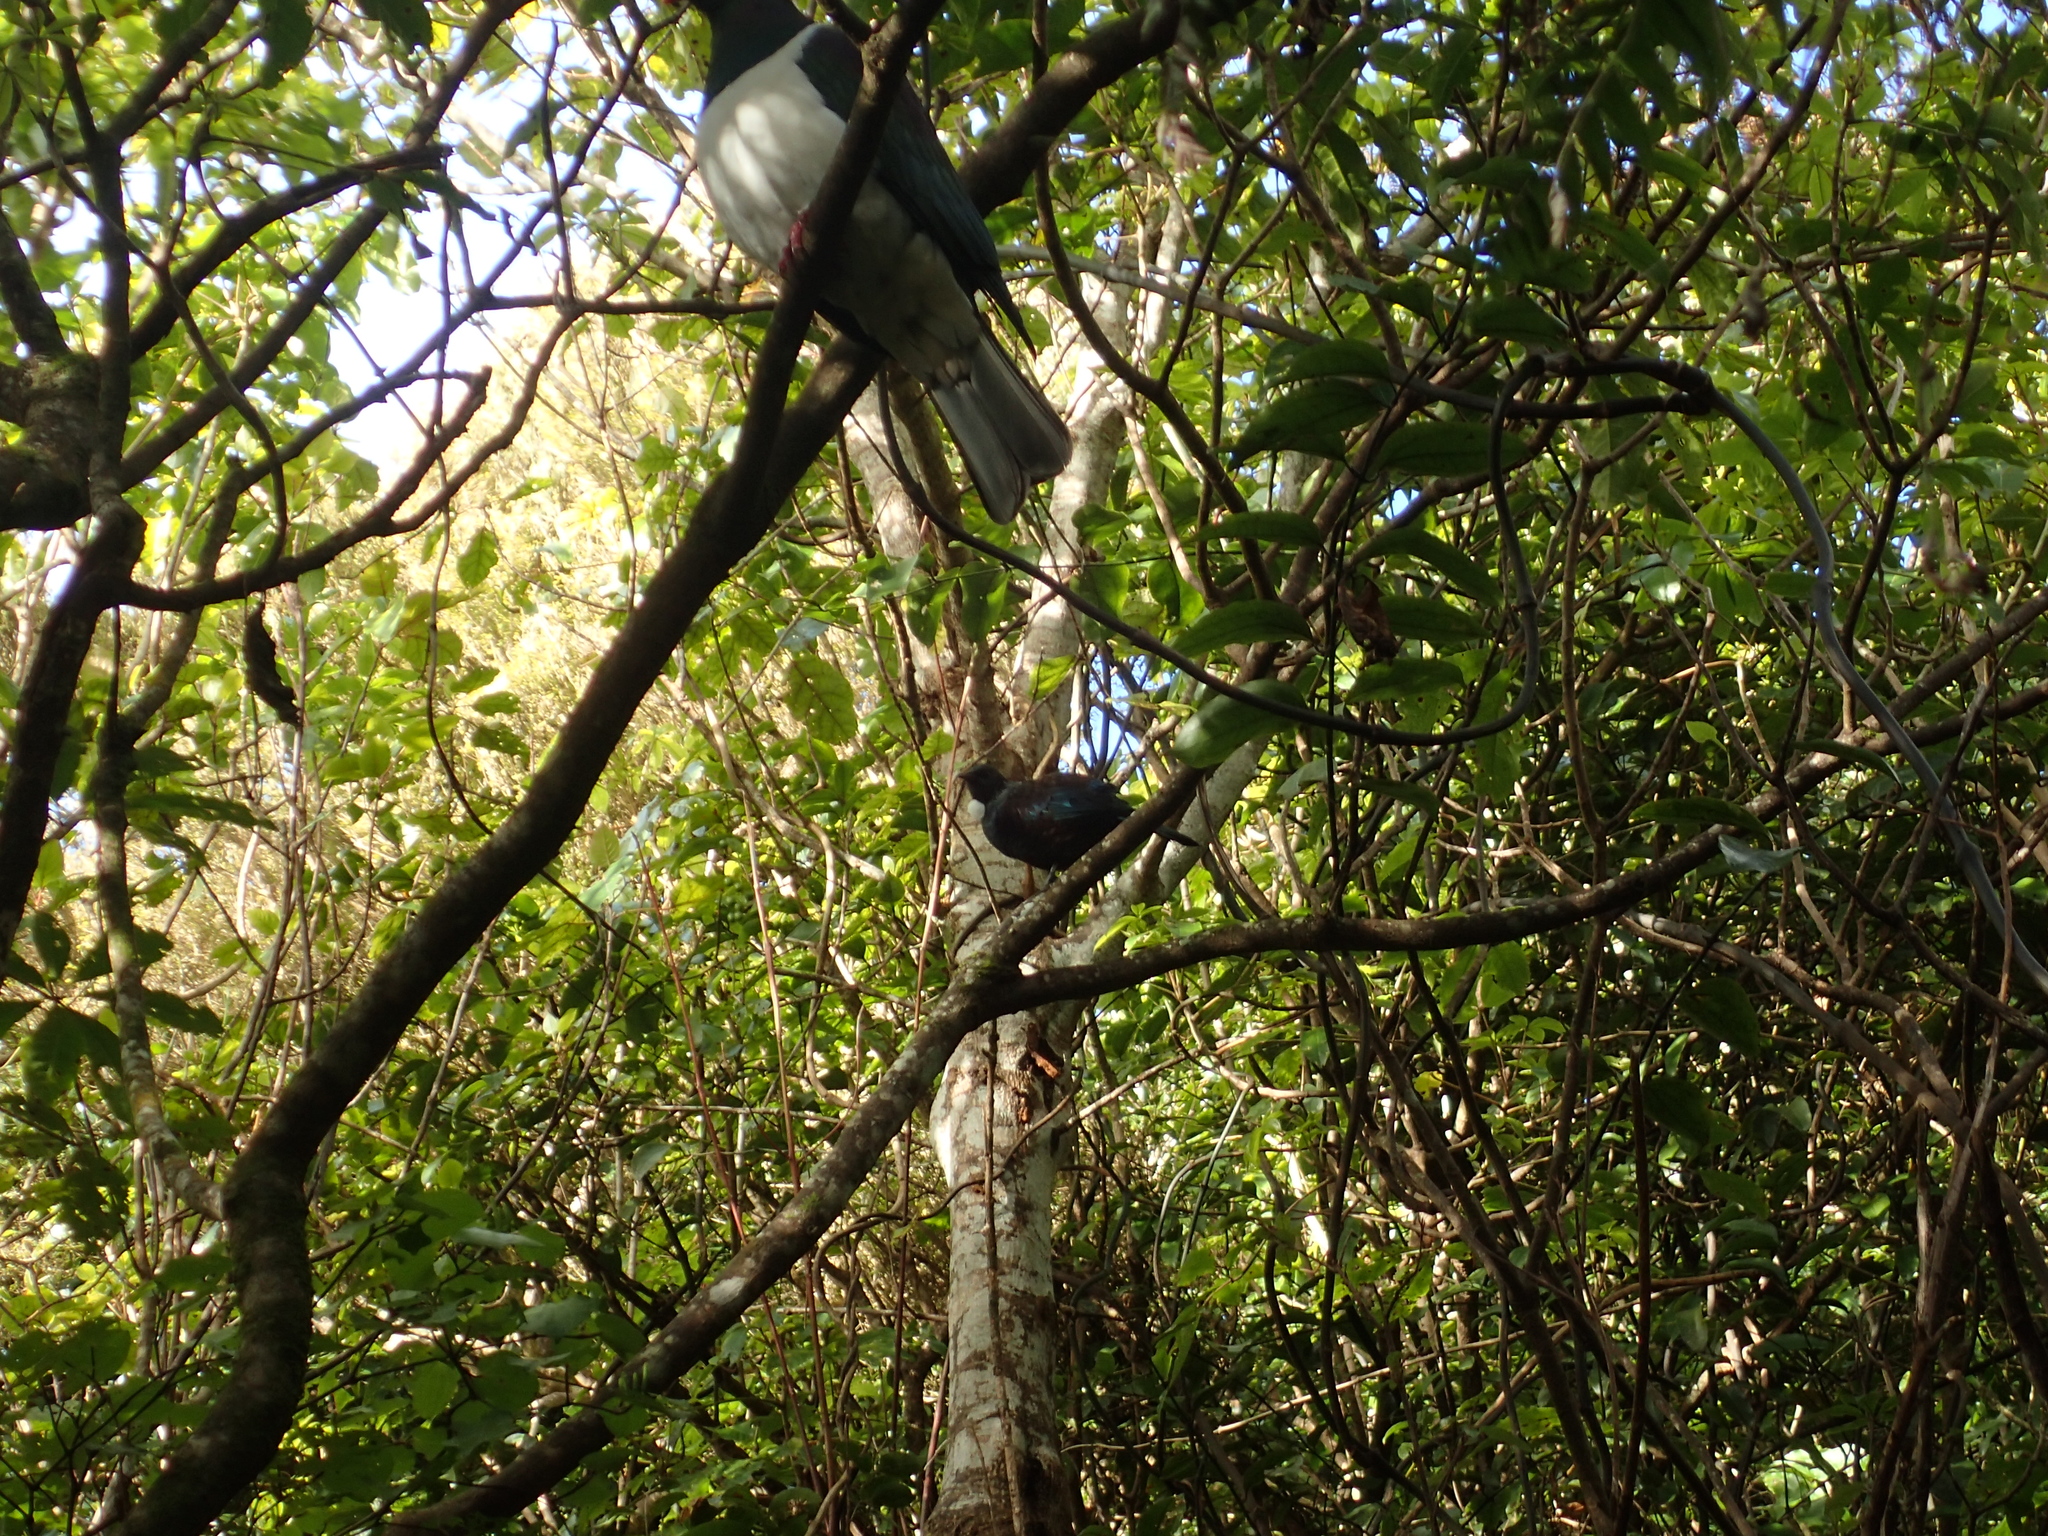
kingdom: Animalia
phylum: Chordata
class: Aves
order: Passeriformes
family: Meliphagidae
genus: Prosthemadera
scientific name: Prosthemadera novaeseelandiae
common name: Tui
